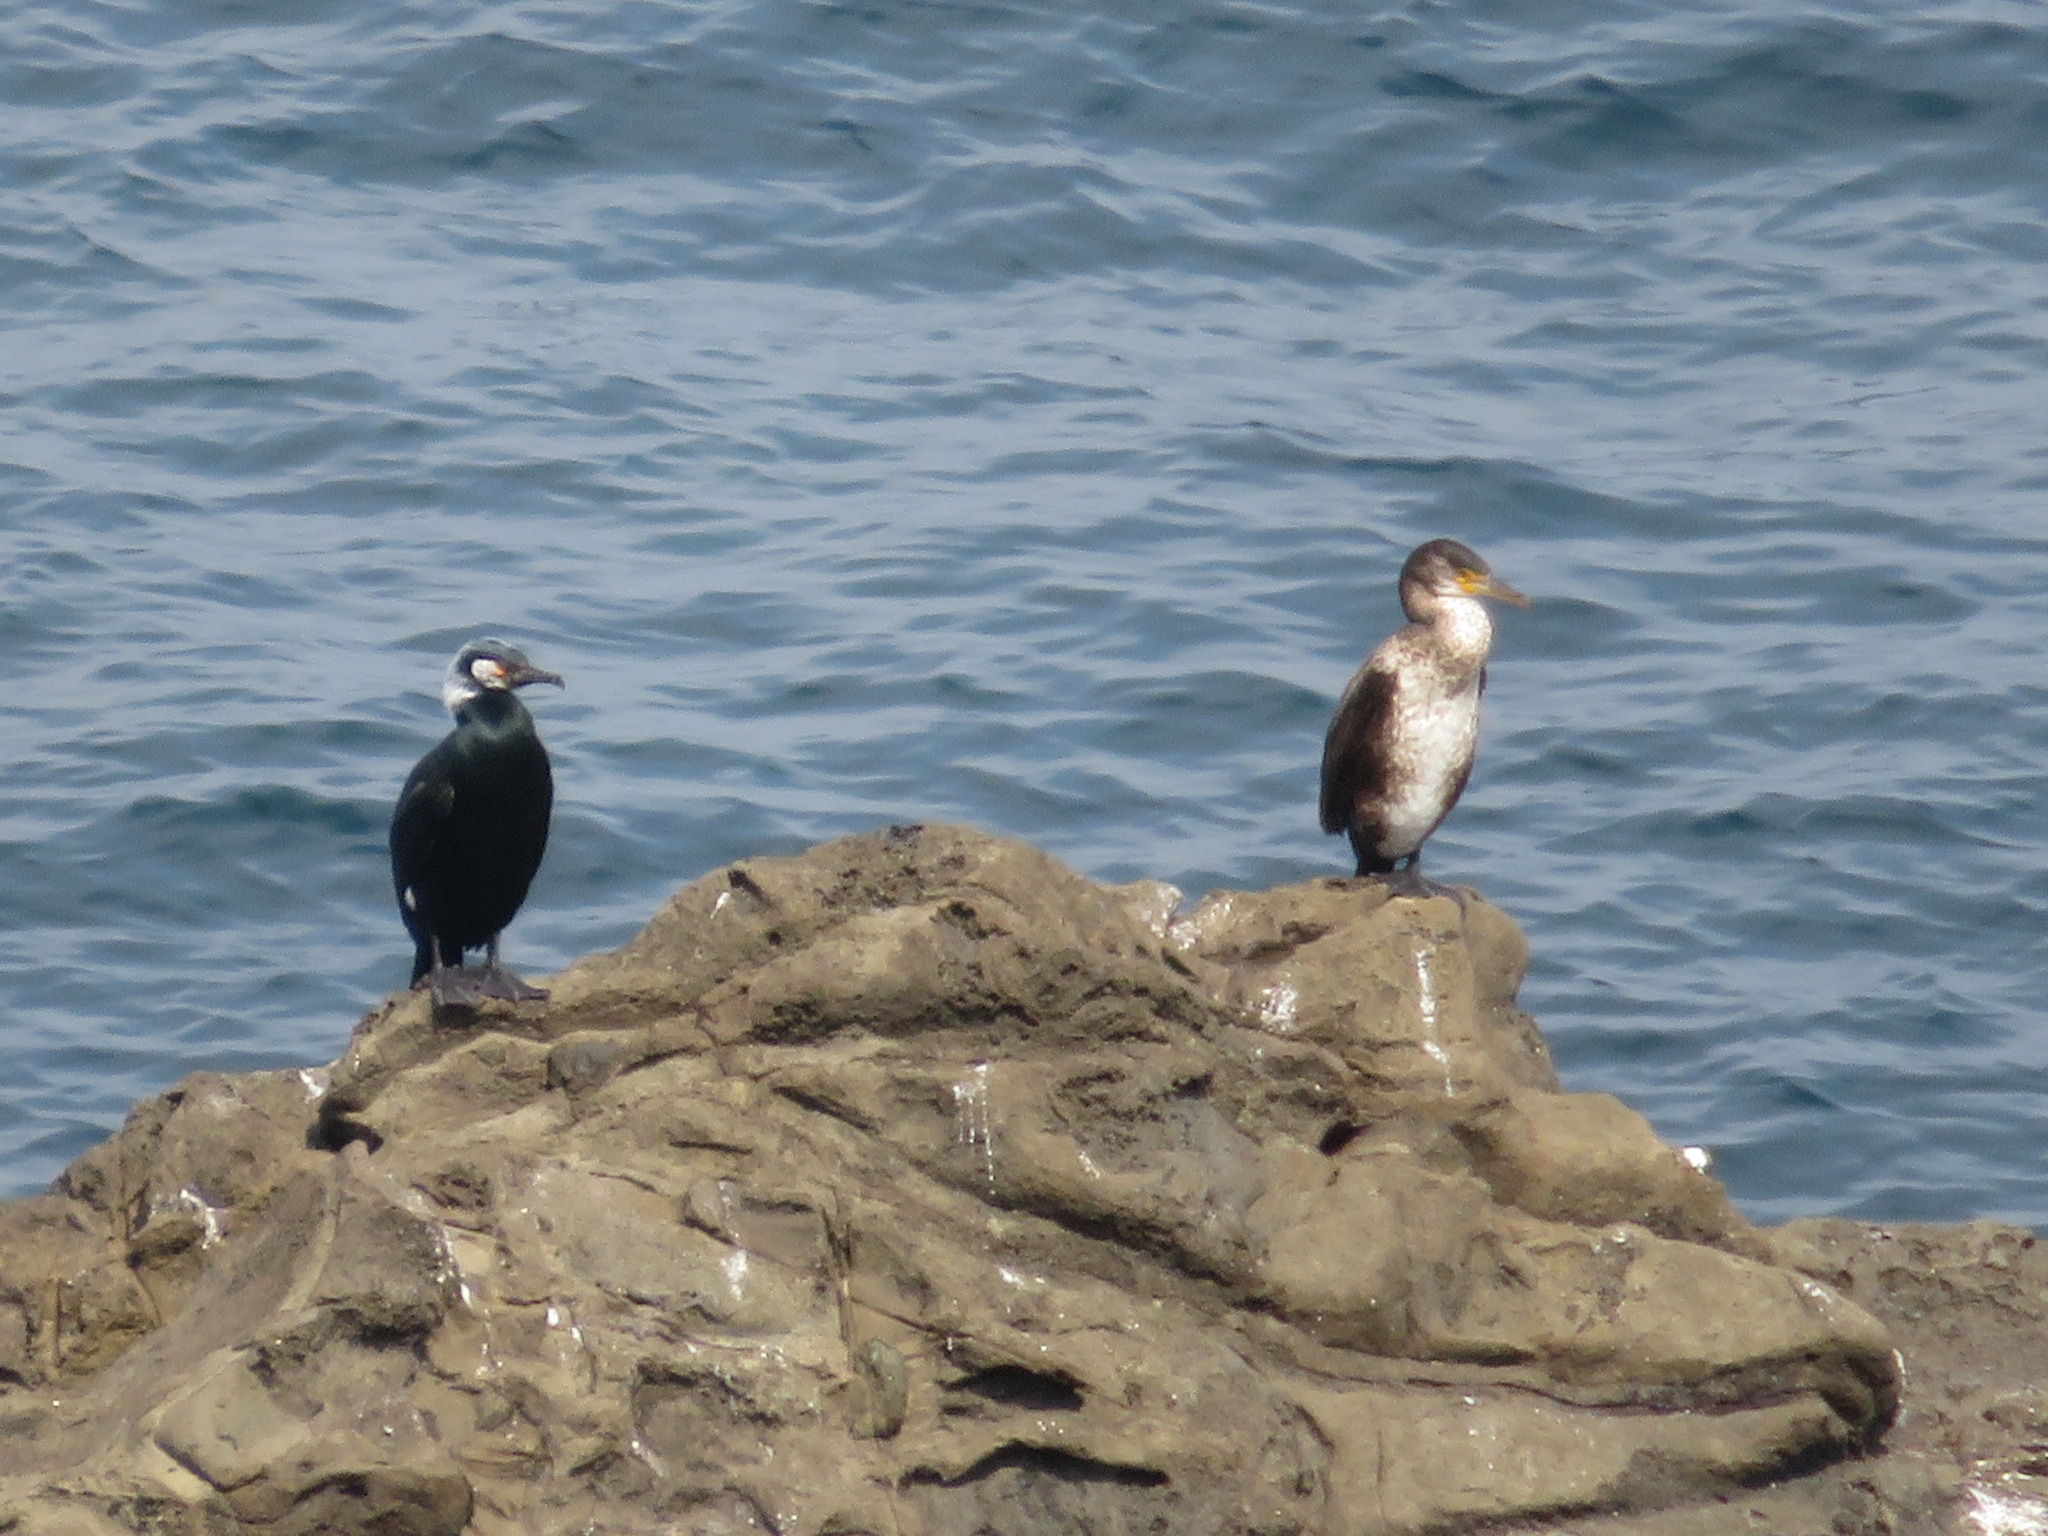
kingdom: Animalia
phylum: Chordata
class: Aves
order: Suliformes
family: Phalacrocoracidae
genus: Phalacrocorax
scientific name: Phalacrocorax capillatus
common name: Japanese cormorant
